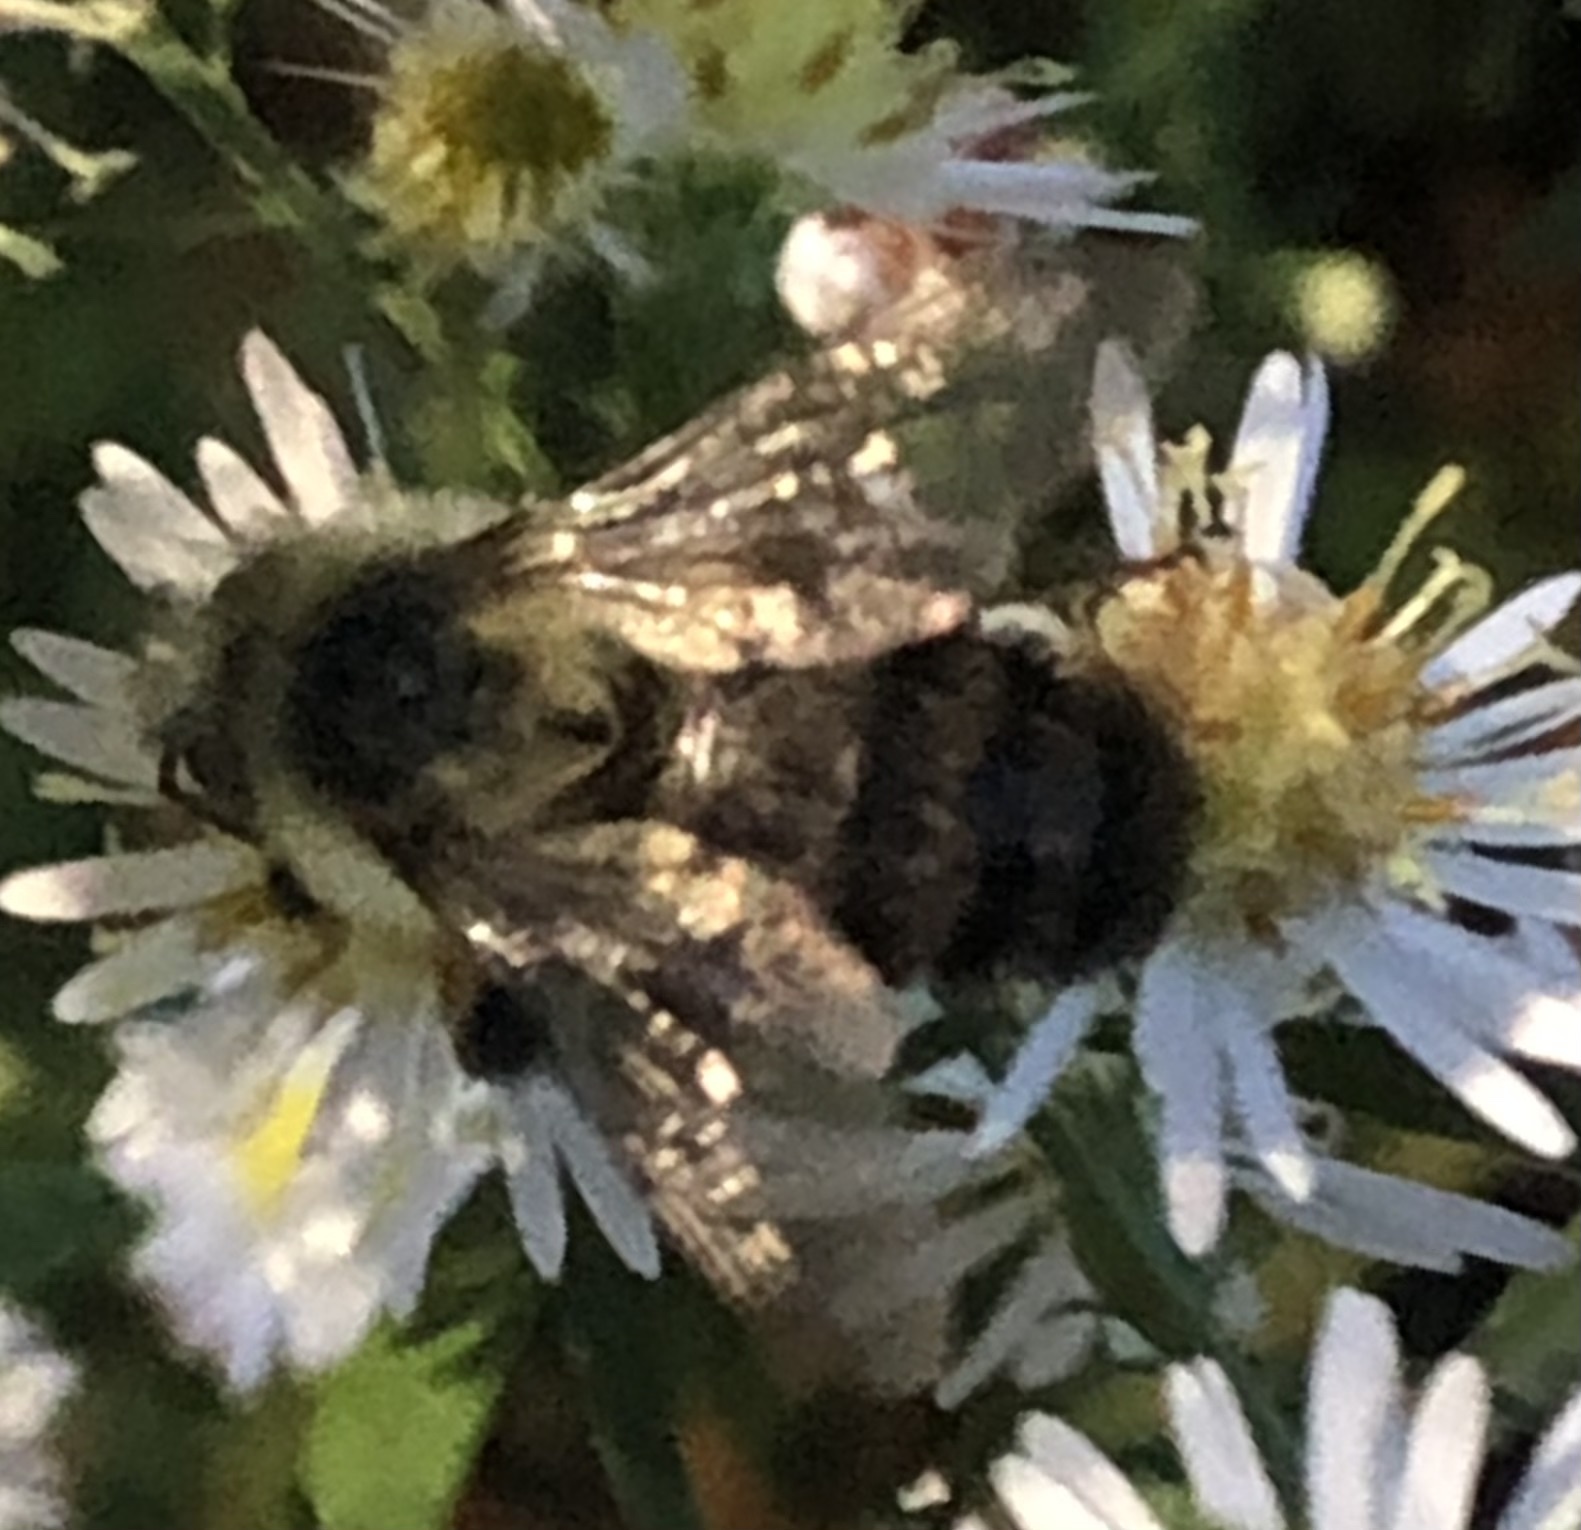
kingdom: Animalia
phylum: Arthropoda
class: Insecta
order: Hymenoptera
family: Apidae
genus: Bombus
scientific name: Bombus impatiens
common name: Common eastern bumble bee
